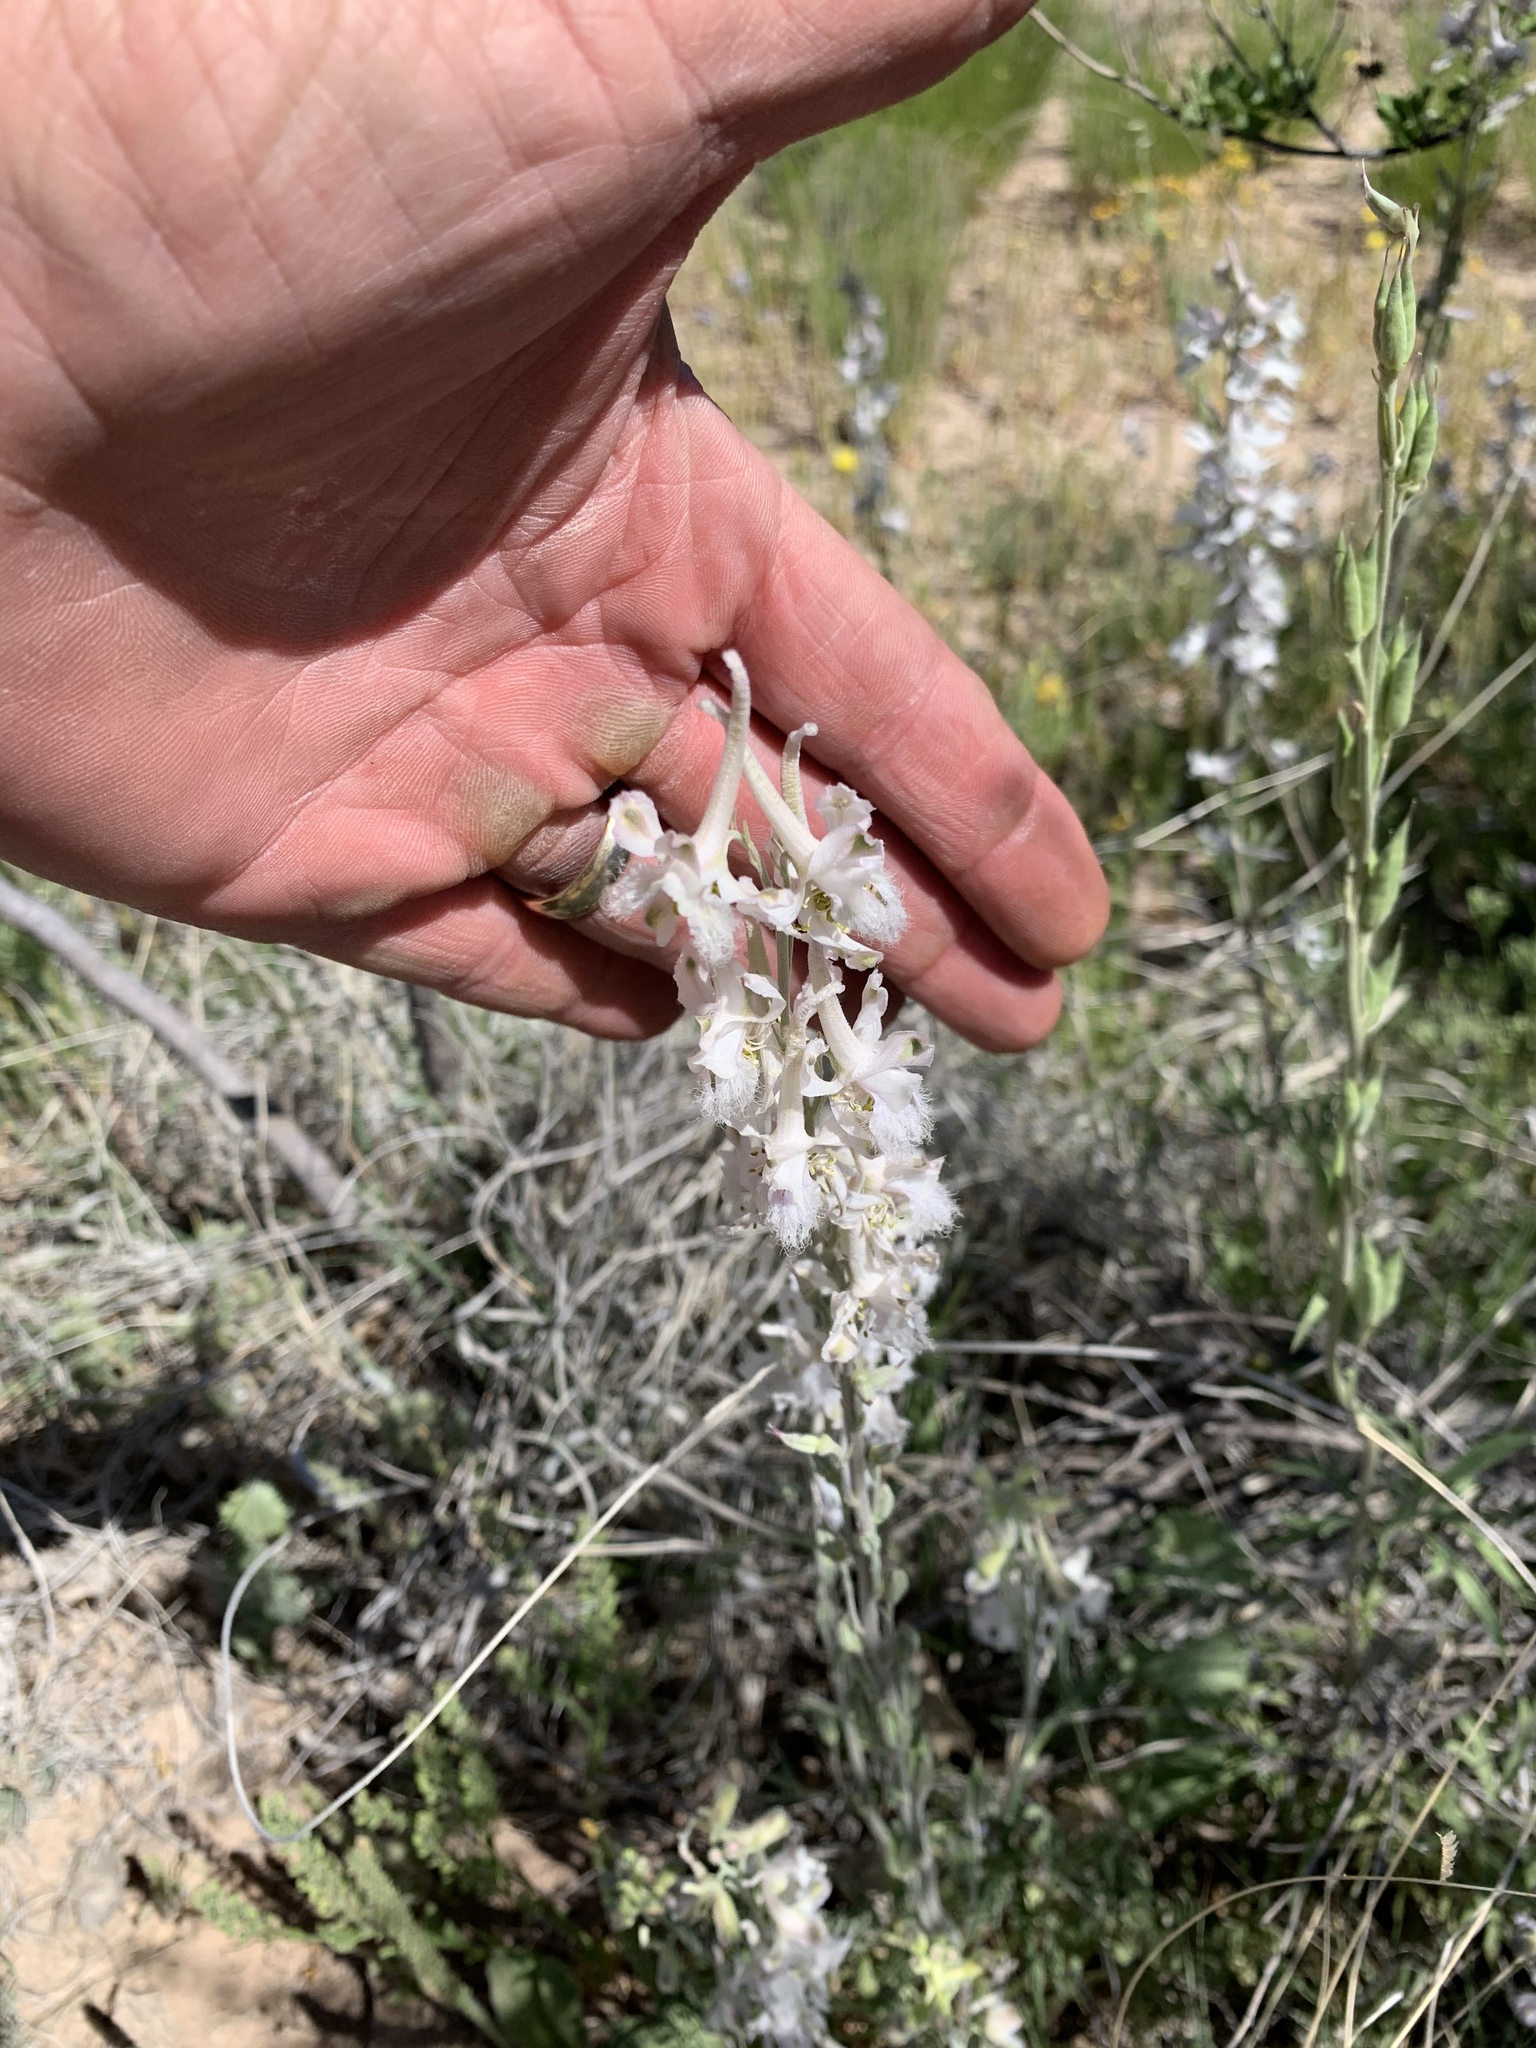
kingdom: Plantae
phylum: Tracheophyta
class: Magnoliopsida
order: Ranunculales
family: Ranunculaceae
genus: Delphinium
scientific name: Delphinium wootonii
